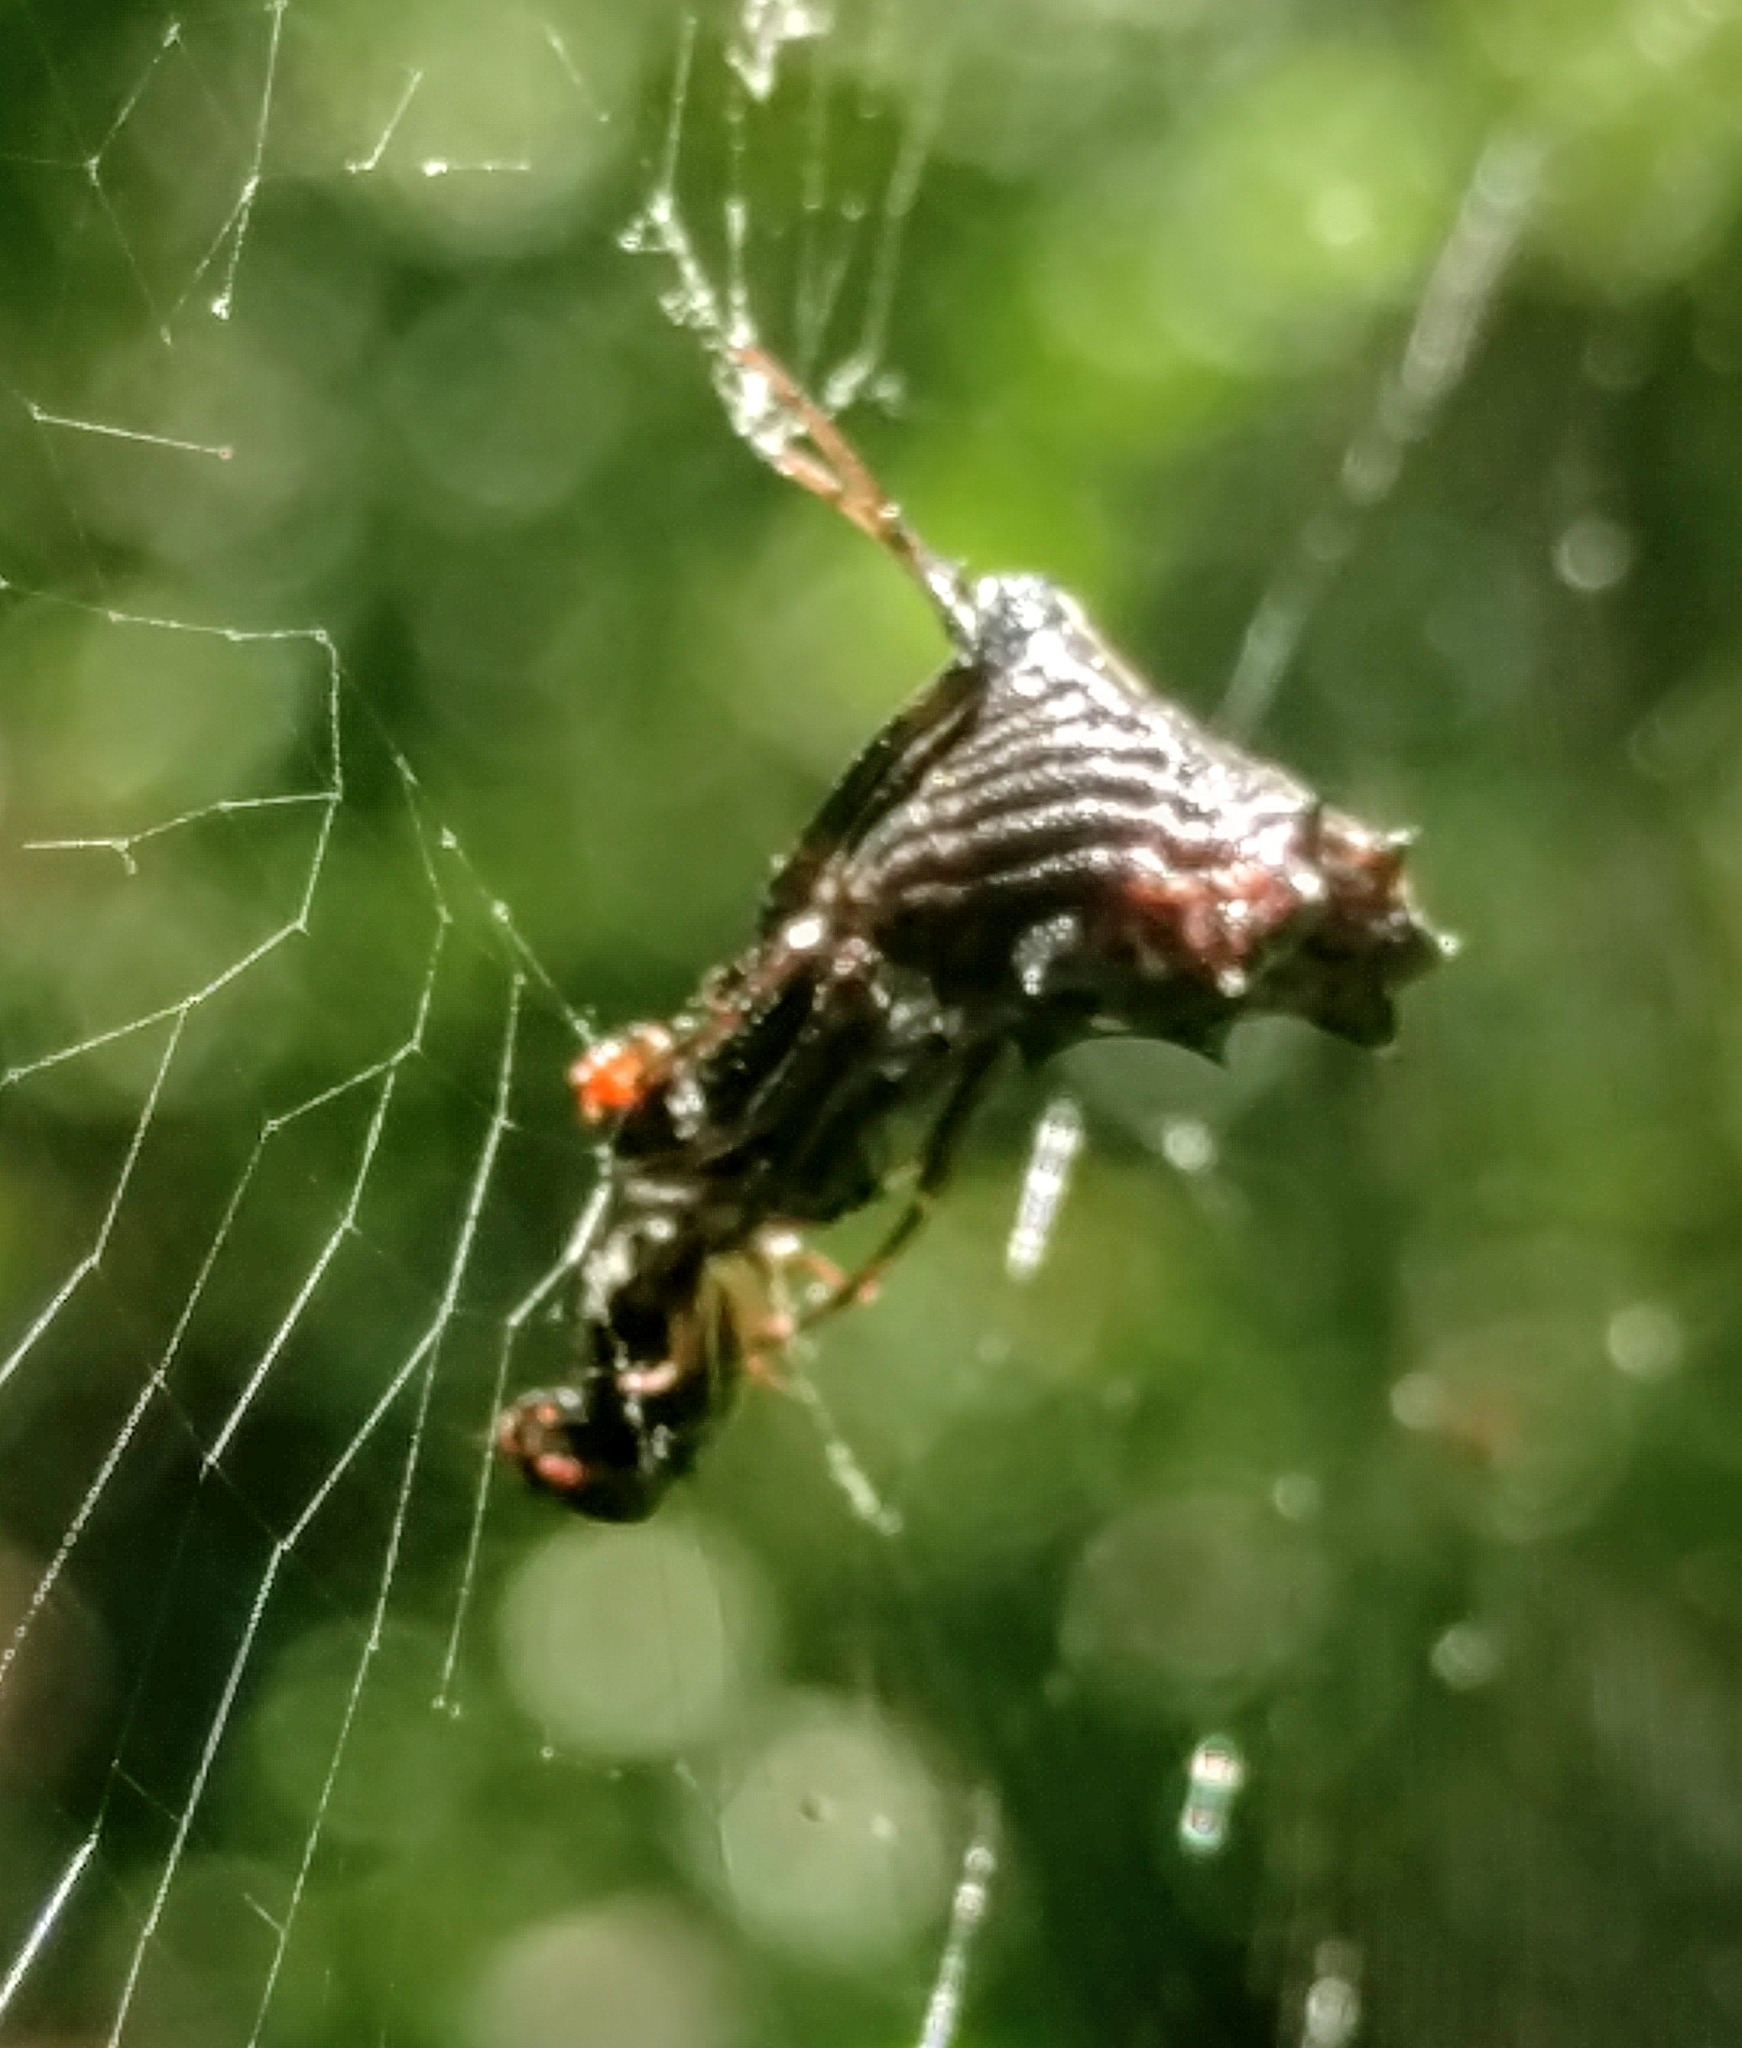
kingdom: Animalia
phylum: Arthropoda
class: Arachnida
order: Araneae
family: Araneidae
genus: Micrathena
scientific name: Micrathena gracilis
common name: Orb weavers
